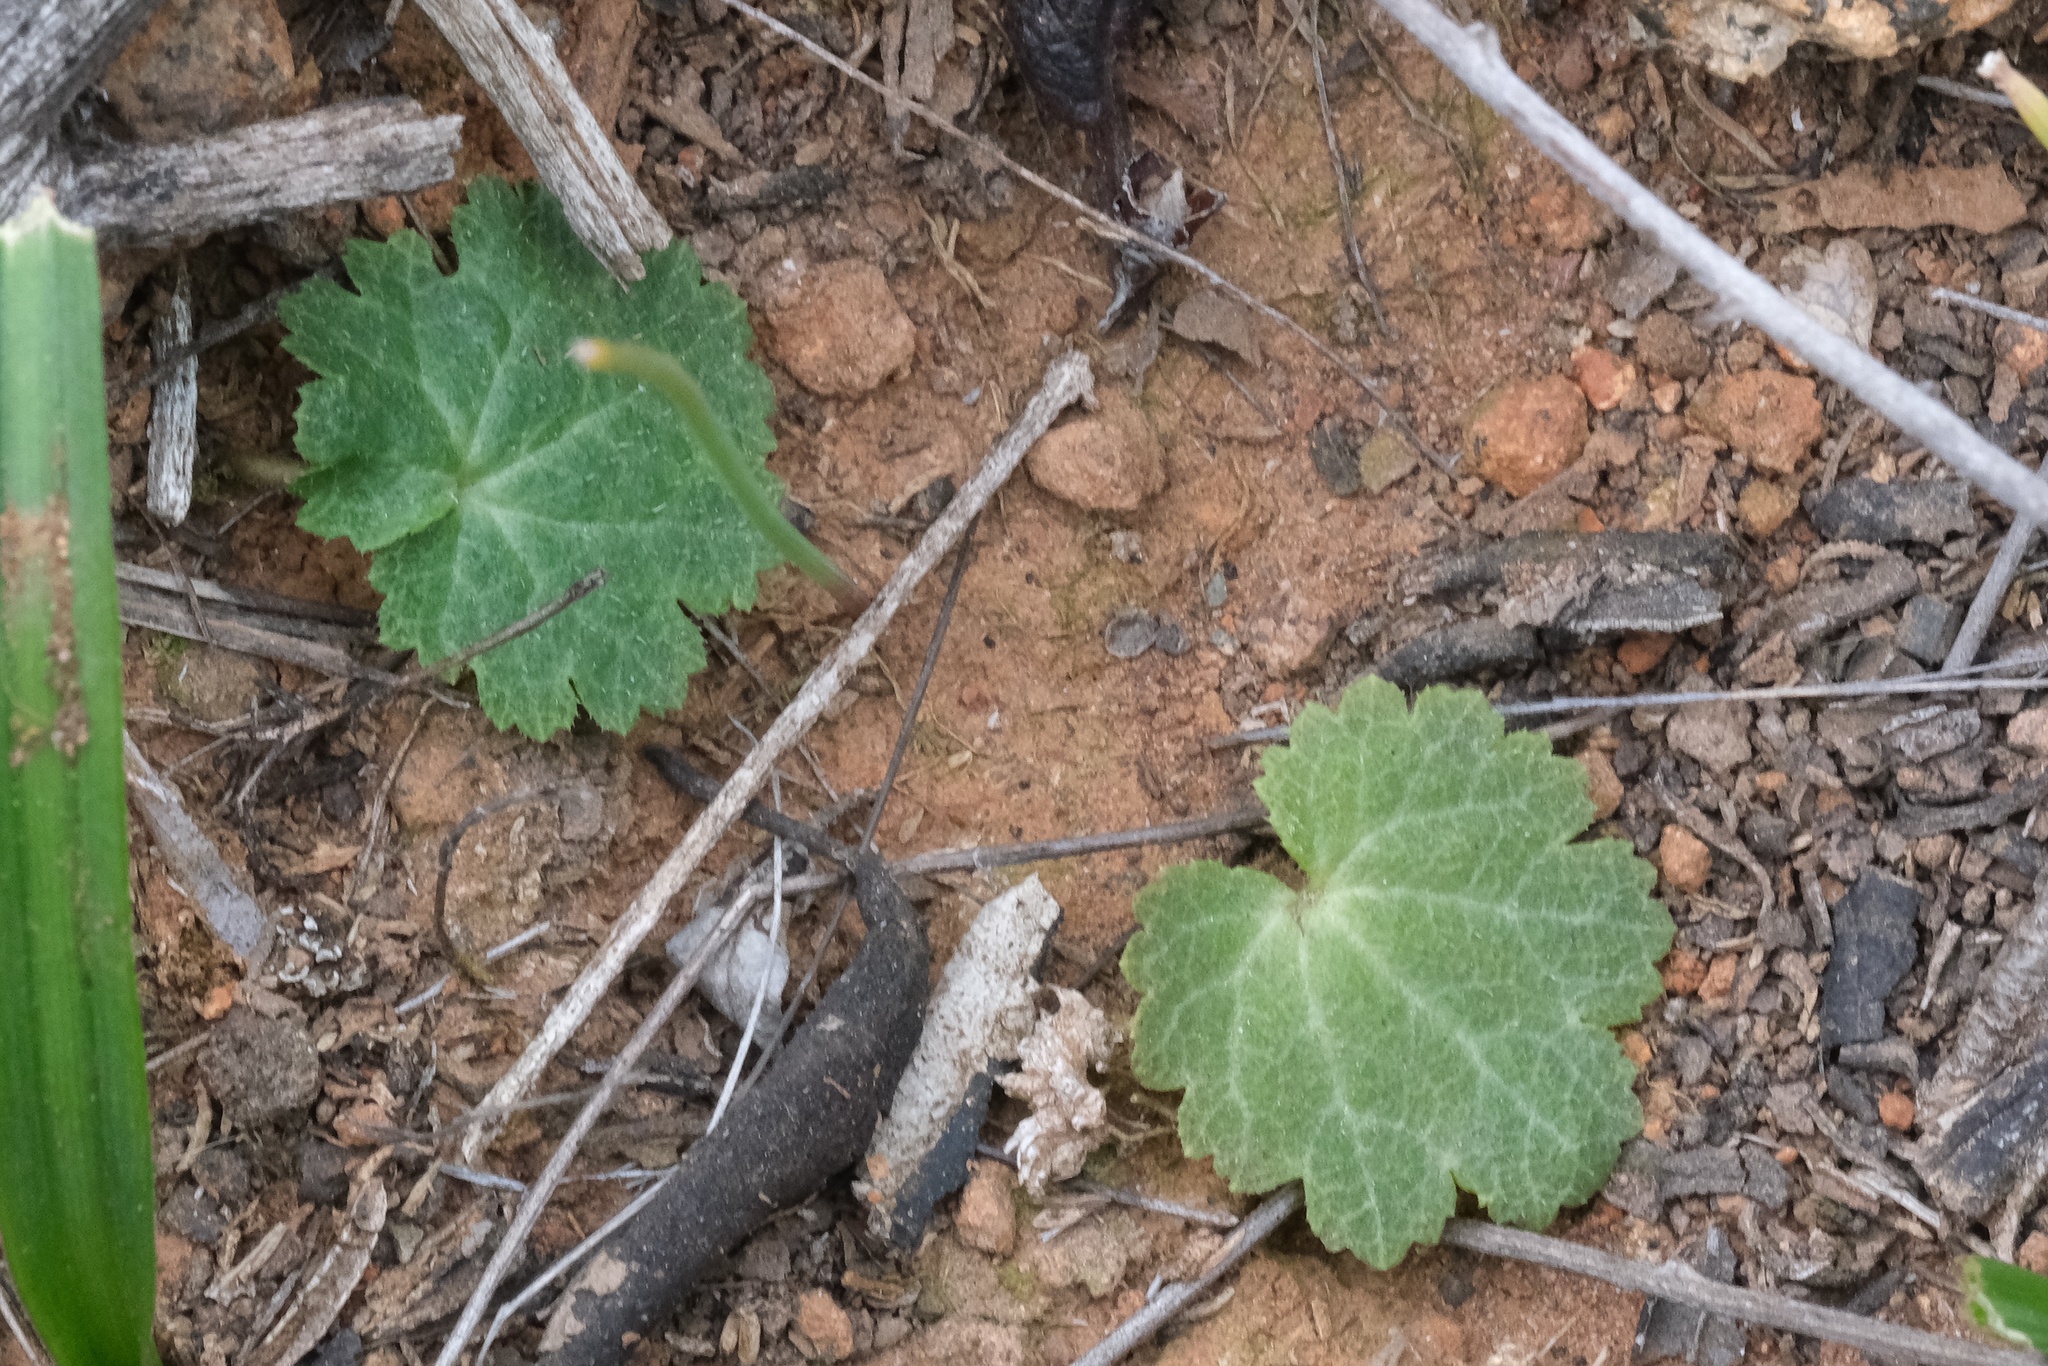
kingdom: Plantae
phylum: Tracheophyta
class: Magnoliopsida
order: Saxifragales
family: Saxifragaceae
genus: Jepsonia
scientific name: Jepsonia parryi
